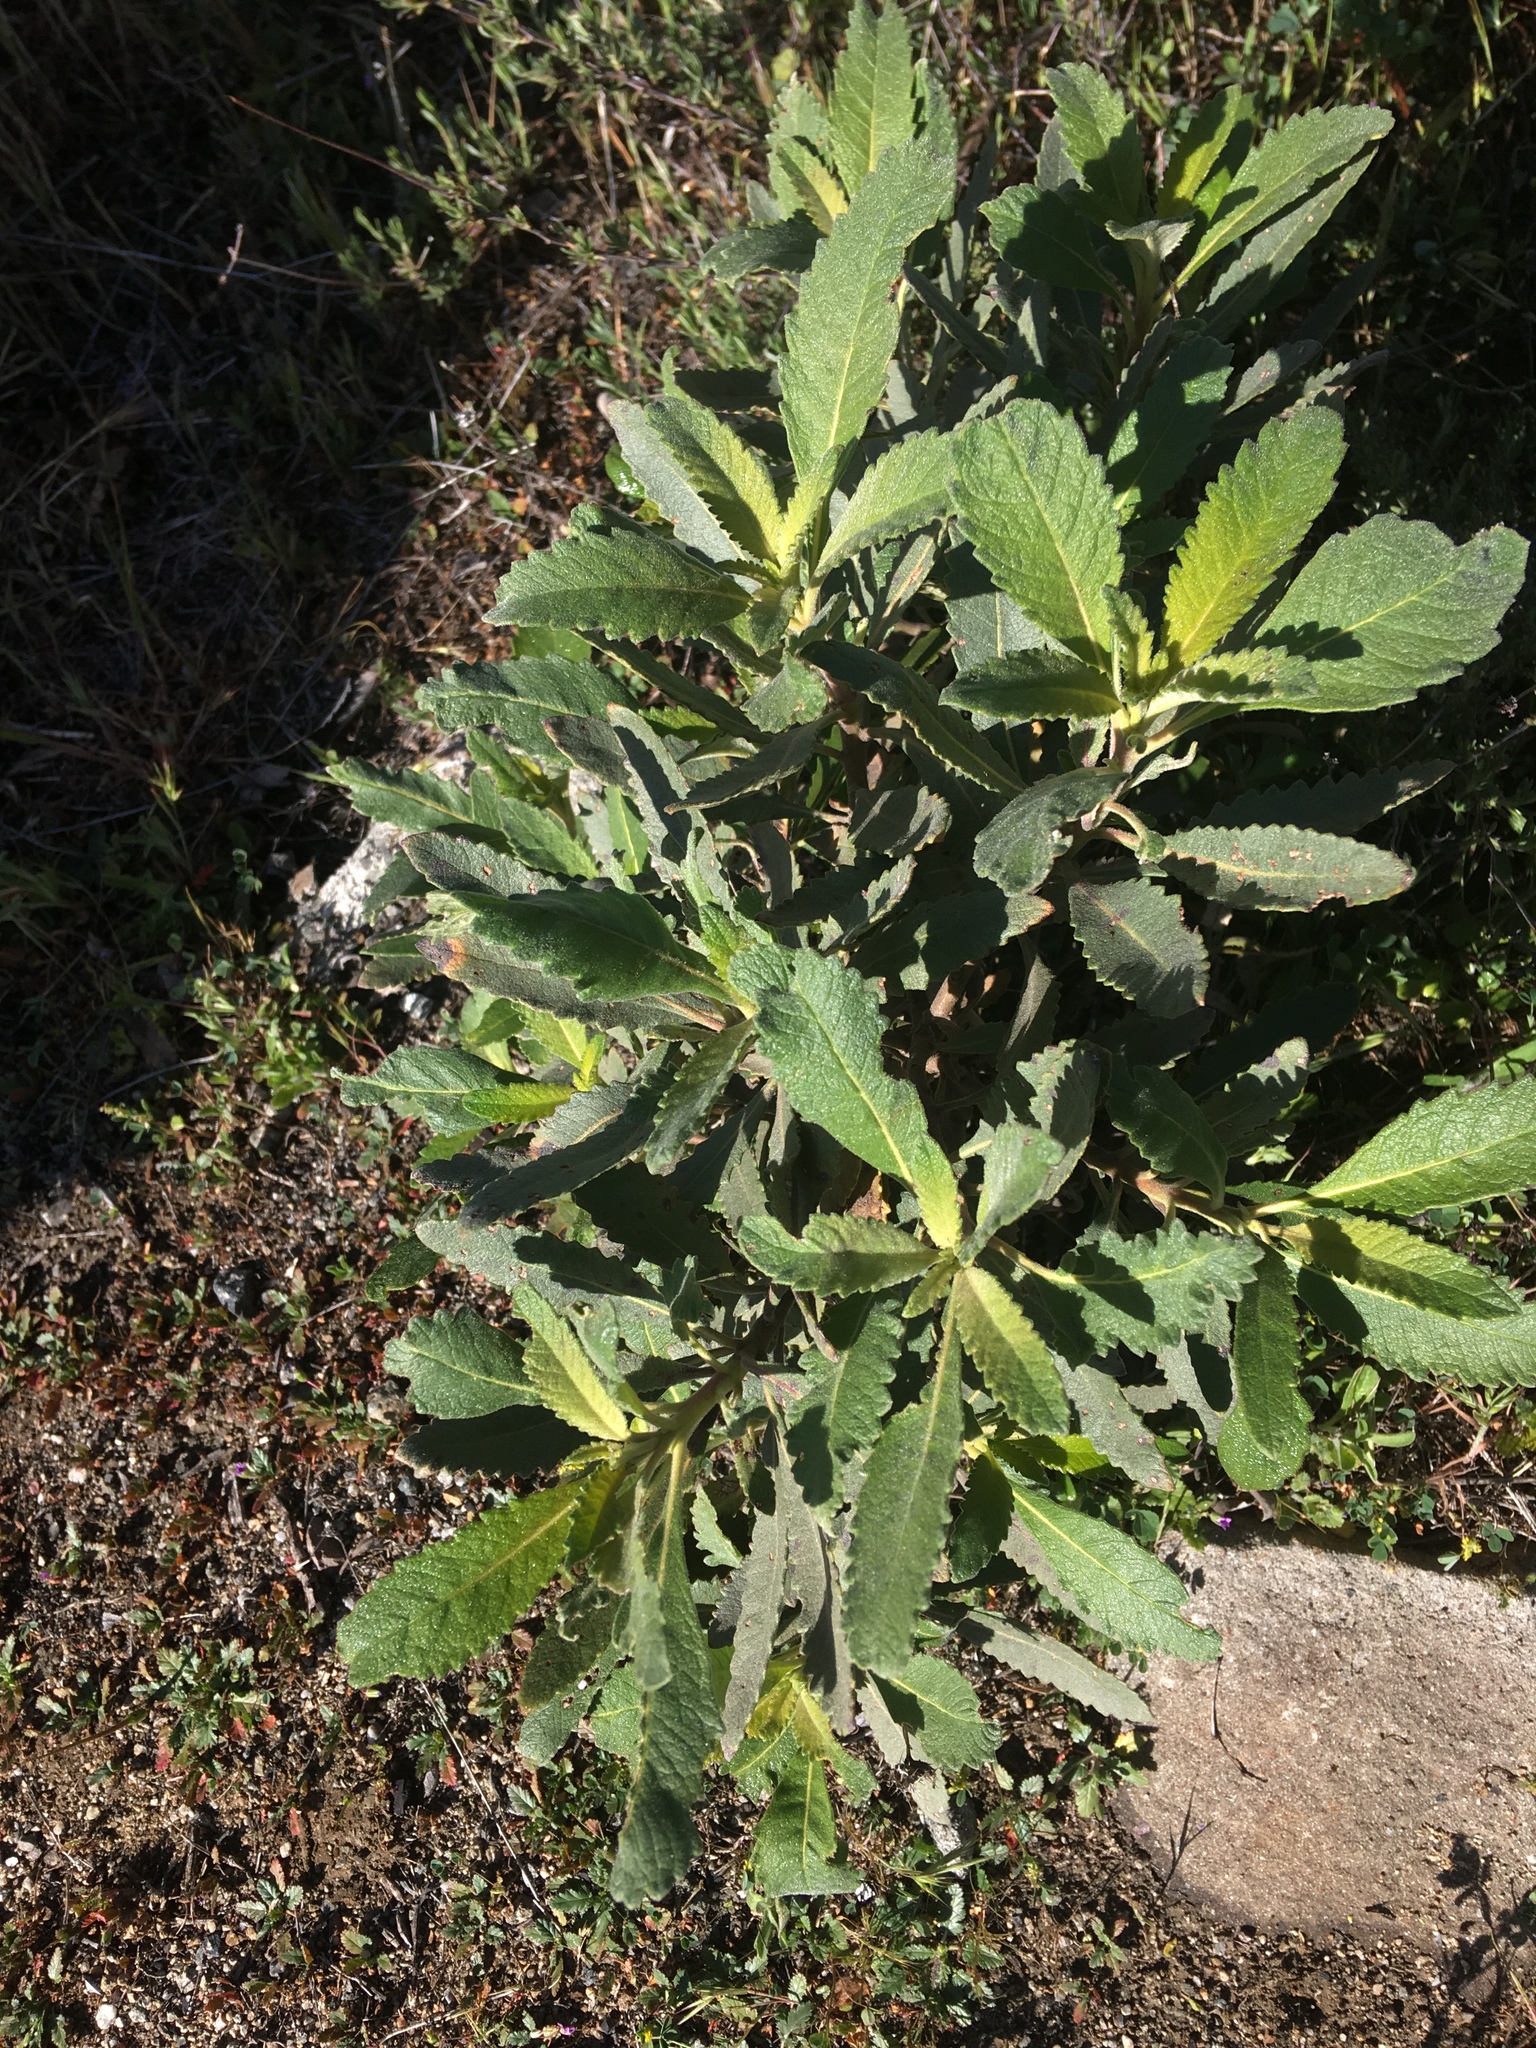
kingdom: Plantae
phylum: Tracheophyta
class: Magnoliopsida
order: Boraginales
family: Namaceae
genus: Eriodictyon
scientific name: Eriodictyon crassifolium
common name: Thick-leaf yerba-santa
